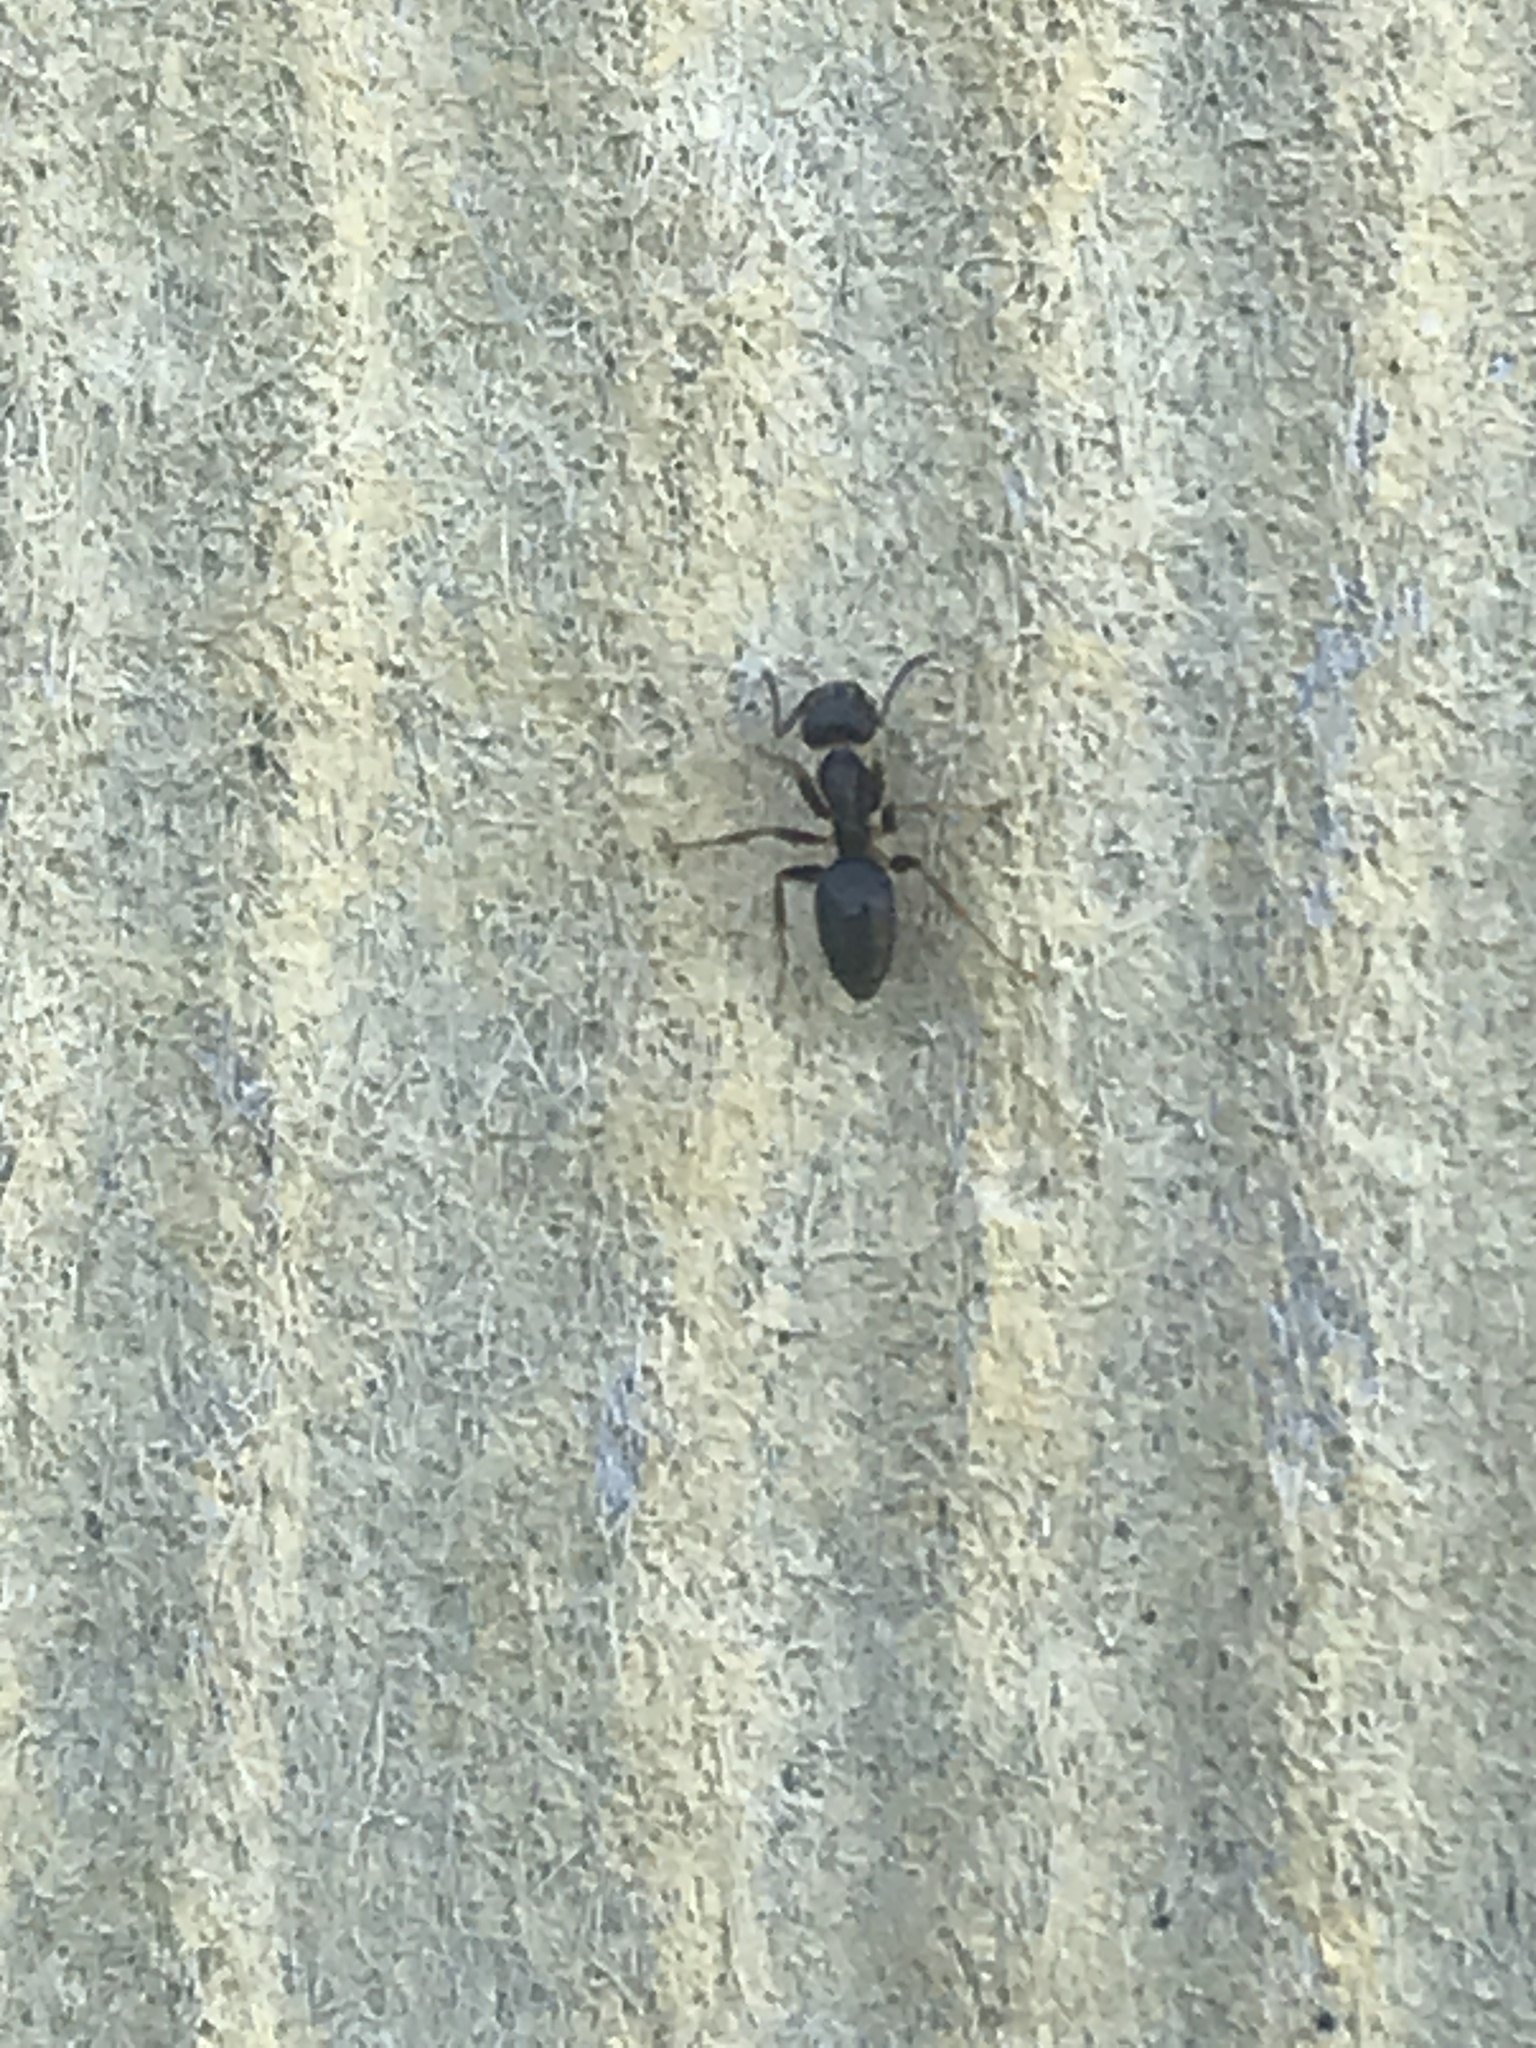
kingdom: Animalia
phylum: Arthropoda
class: Insecta
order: Hymenoptera
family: Formicidae
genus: Tapinoma
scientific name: Tapinoma sessile
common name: Odorous house ant
